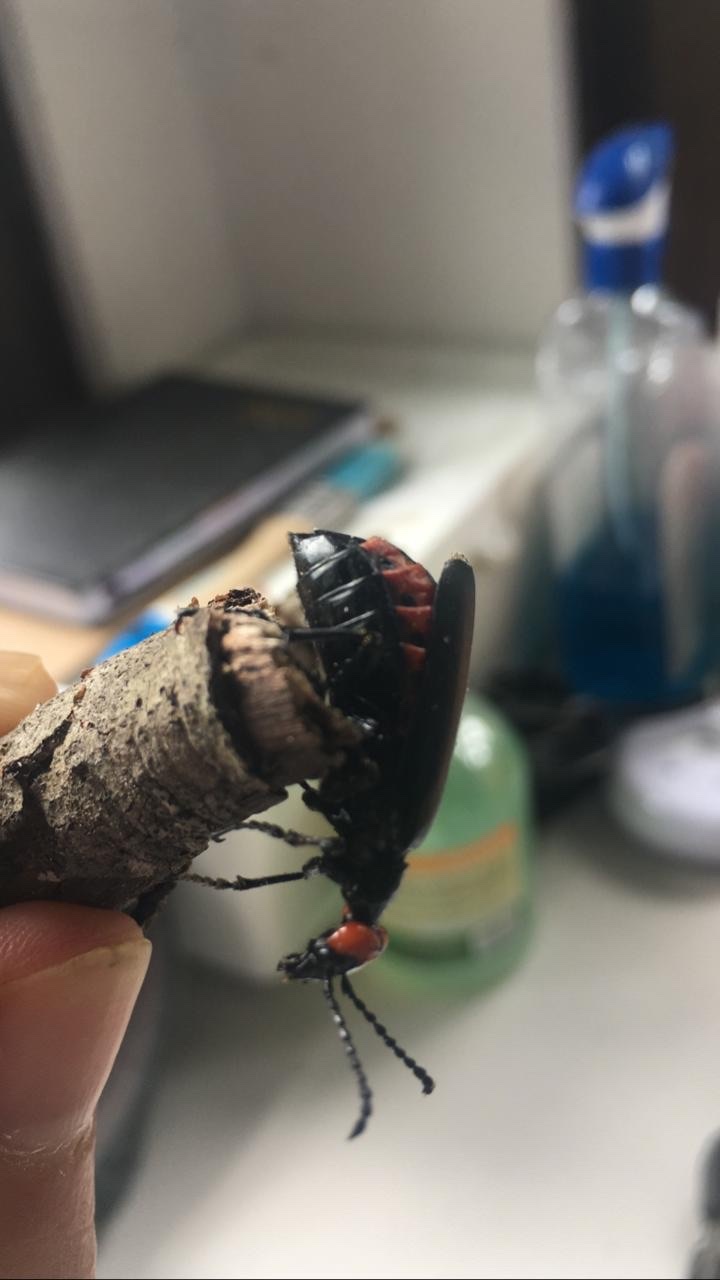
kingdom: Animalia
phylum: Arthropoda
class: Insecta
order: Coleoptera
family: Meloidae
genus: Lytta
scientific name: Lytta eucera
